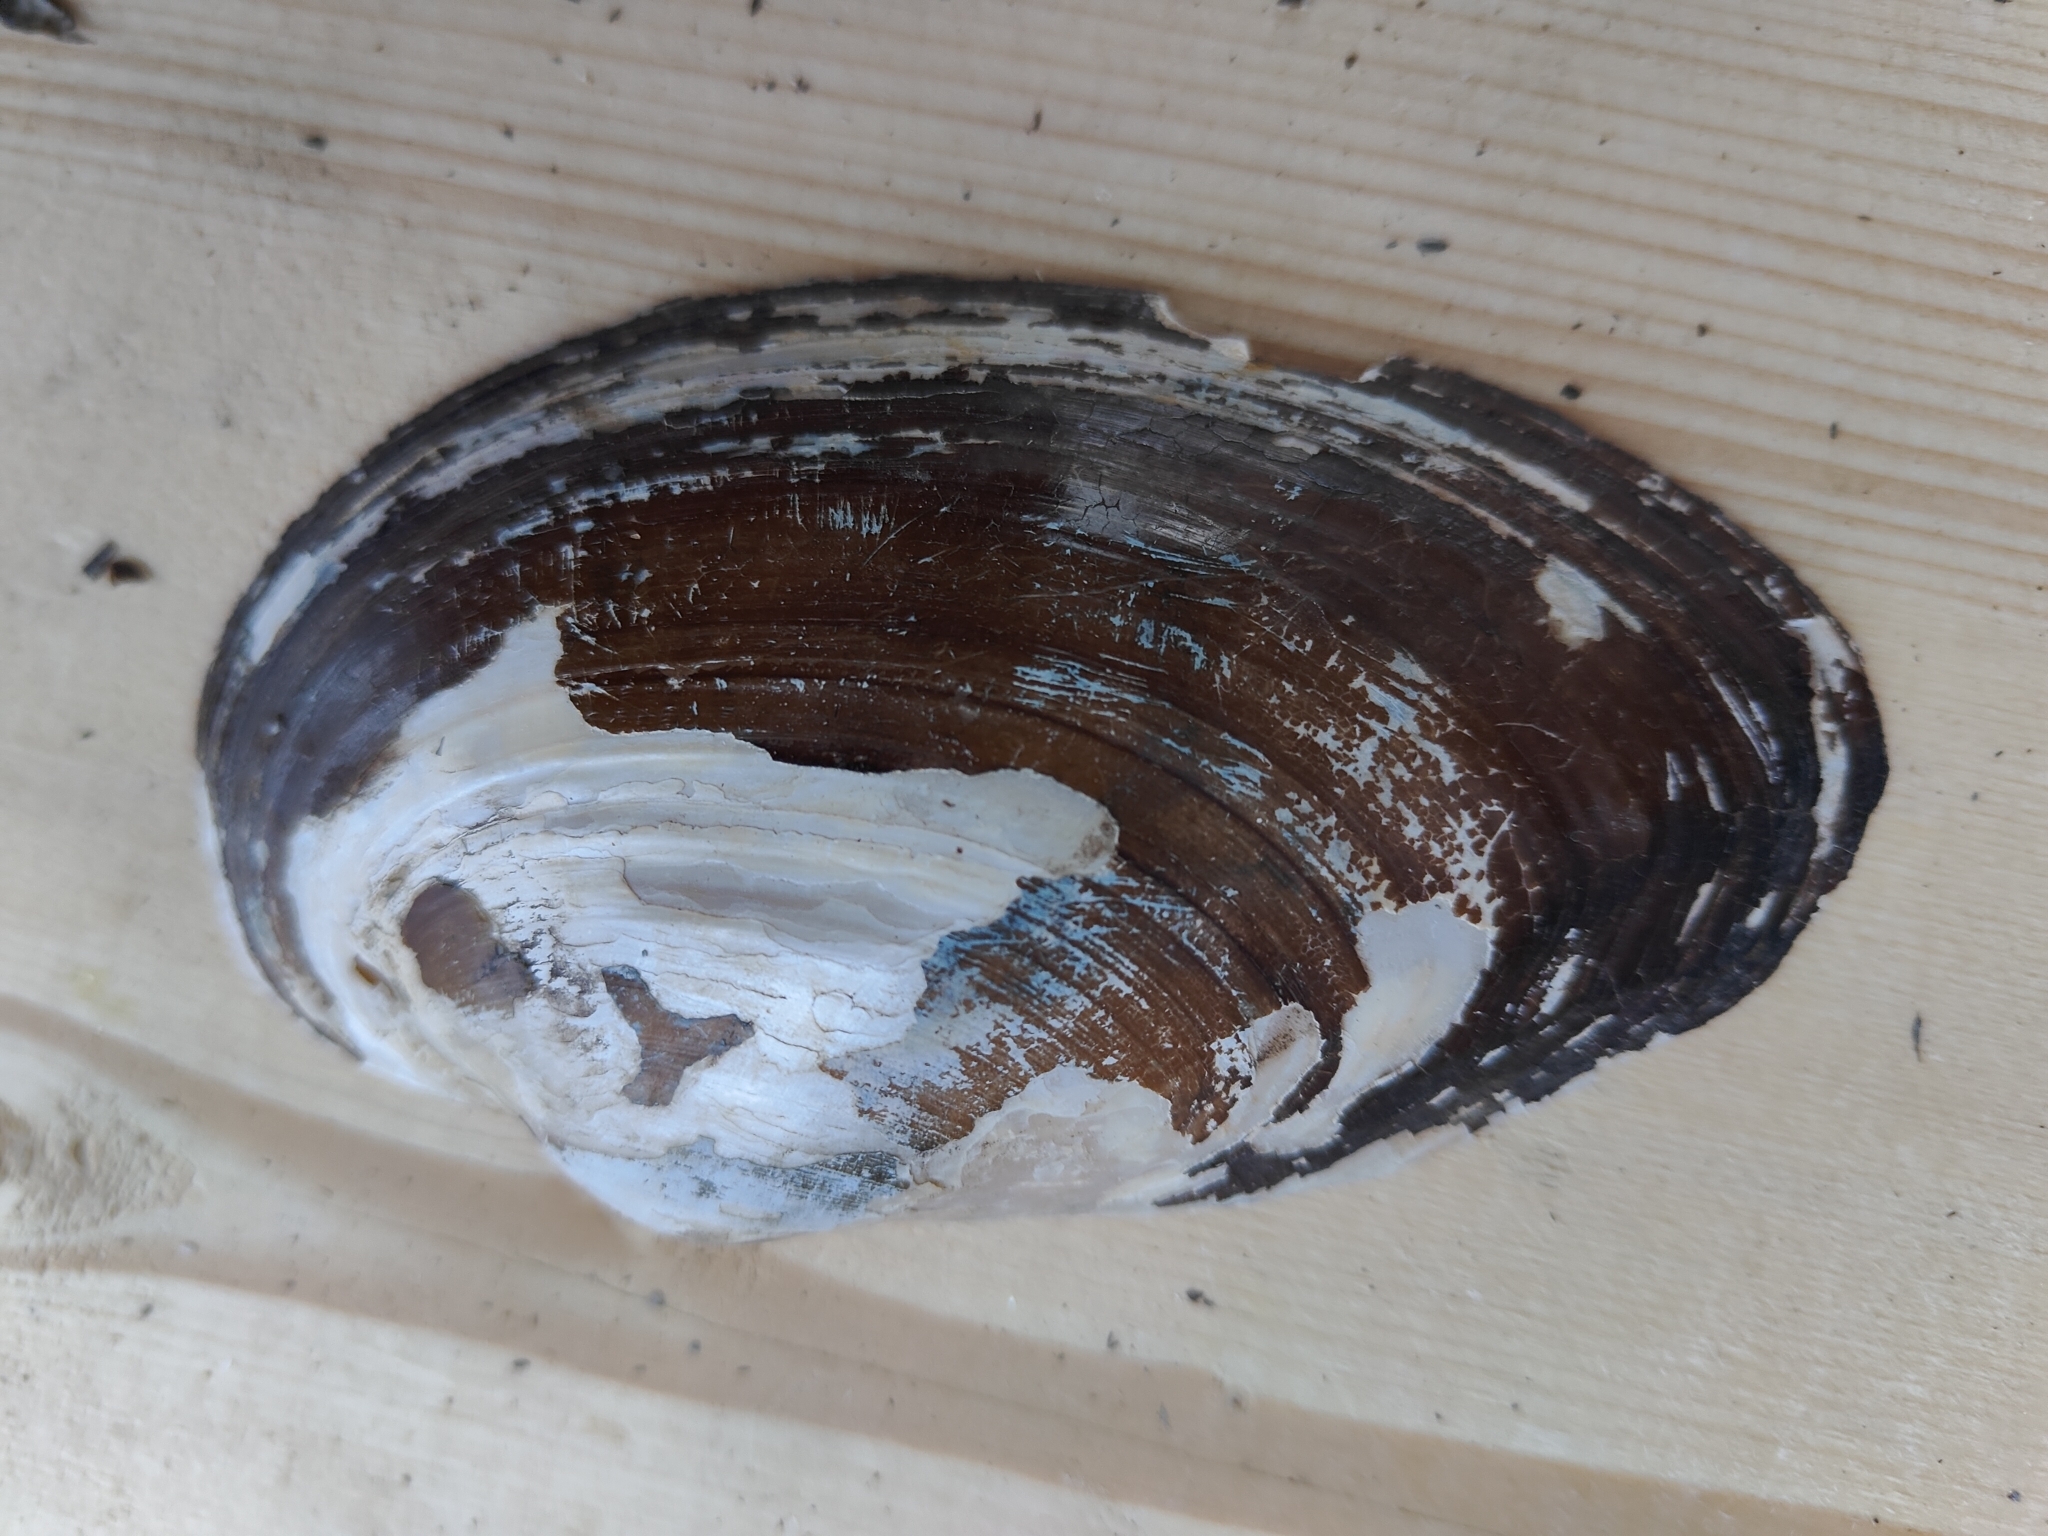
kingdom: Animalia
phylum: Mollusca
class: Bivalvia
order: Unionida
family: Unionidae
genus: Pyganodon
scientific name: Pyganodon grandis
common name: Giant floater
